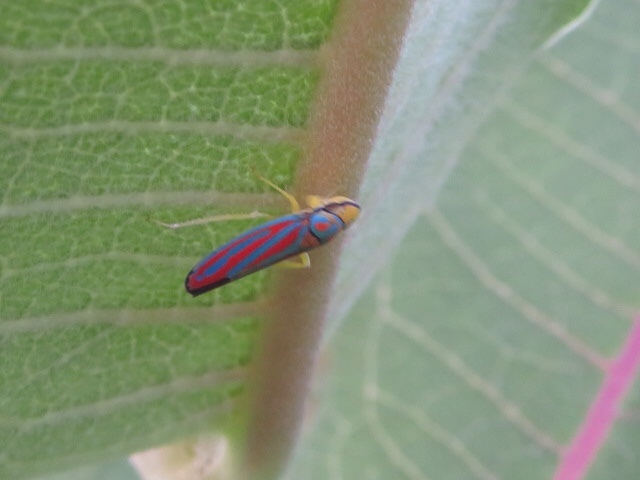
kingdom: Animalia
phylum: Arthropoda
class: Insecta
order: Hemiptera
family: Cicadellidae
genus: Graphocephala
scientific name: Graphocephala coccinea
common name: Candy-striped leafhopper
